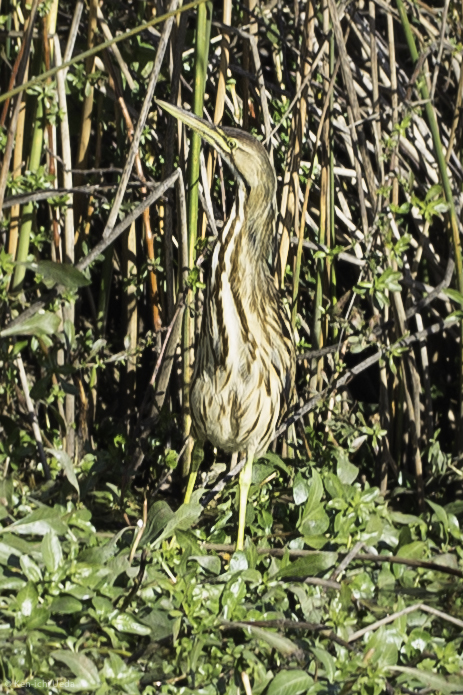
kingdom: Animalia
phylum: Chordata
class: Aves
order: Pelecaniformes
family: Ardeidae
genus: Botaurus
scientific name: Botaurus lentiginosus
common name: American bittern
